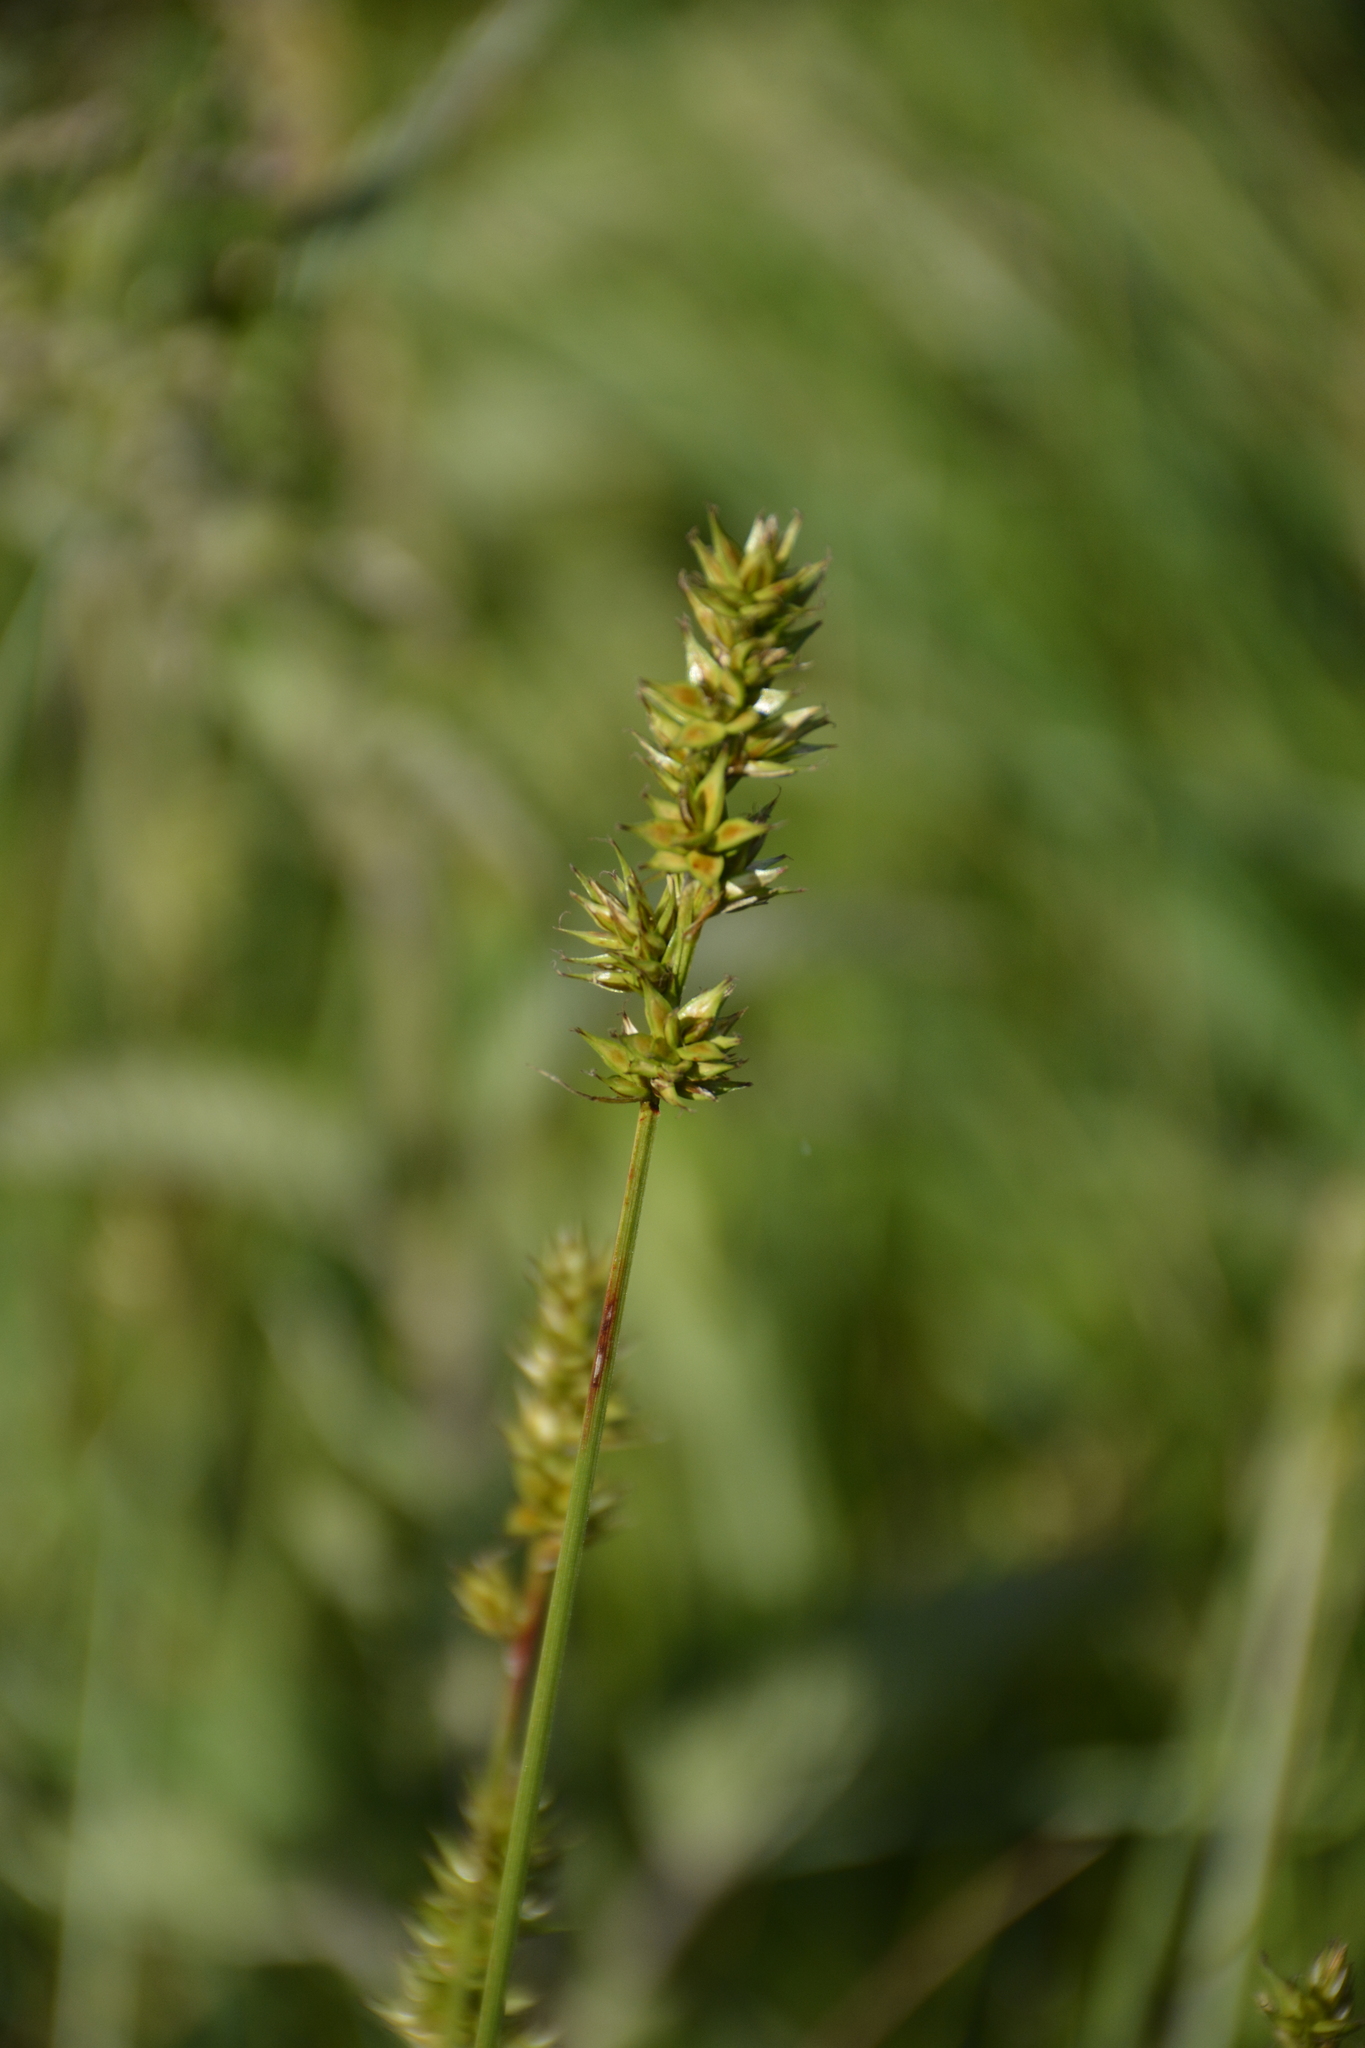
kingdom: Plantae
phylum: Tracheophyta
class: Liliopsida
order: Poales
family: Cyperaceae
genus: Carex
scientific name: Carex spicata
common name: Spiked sedge
